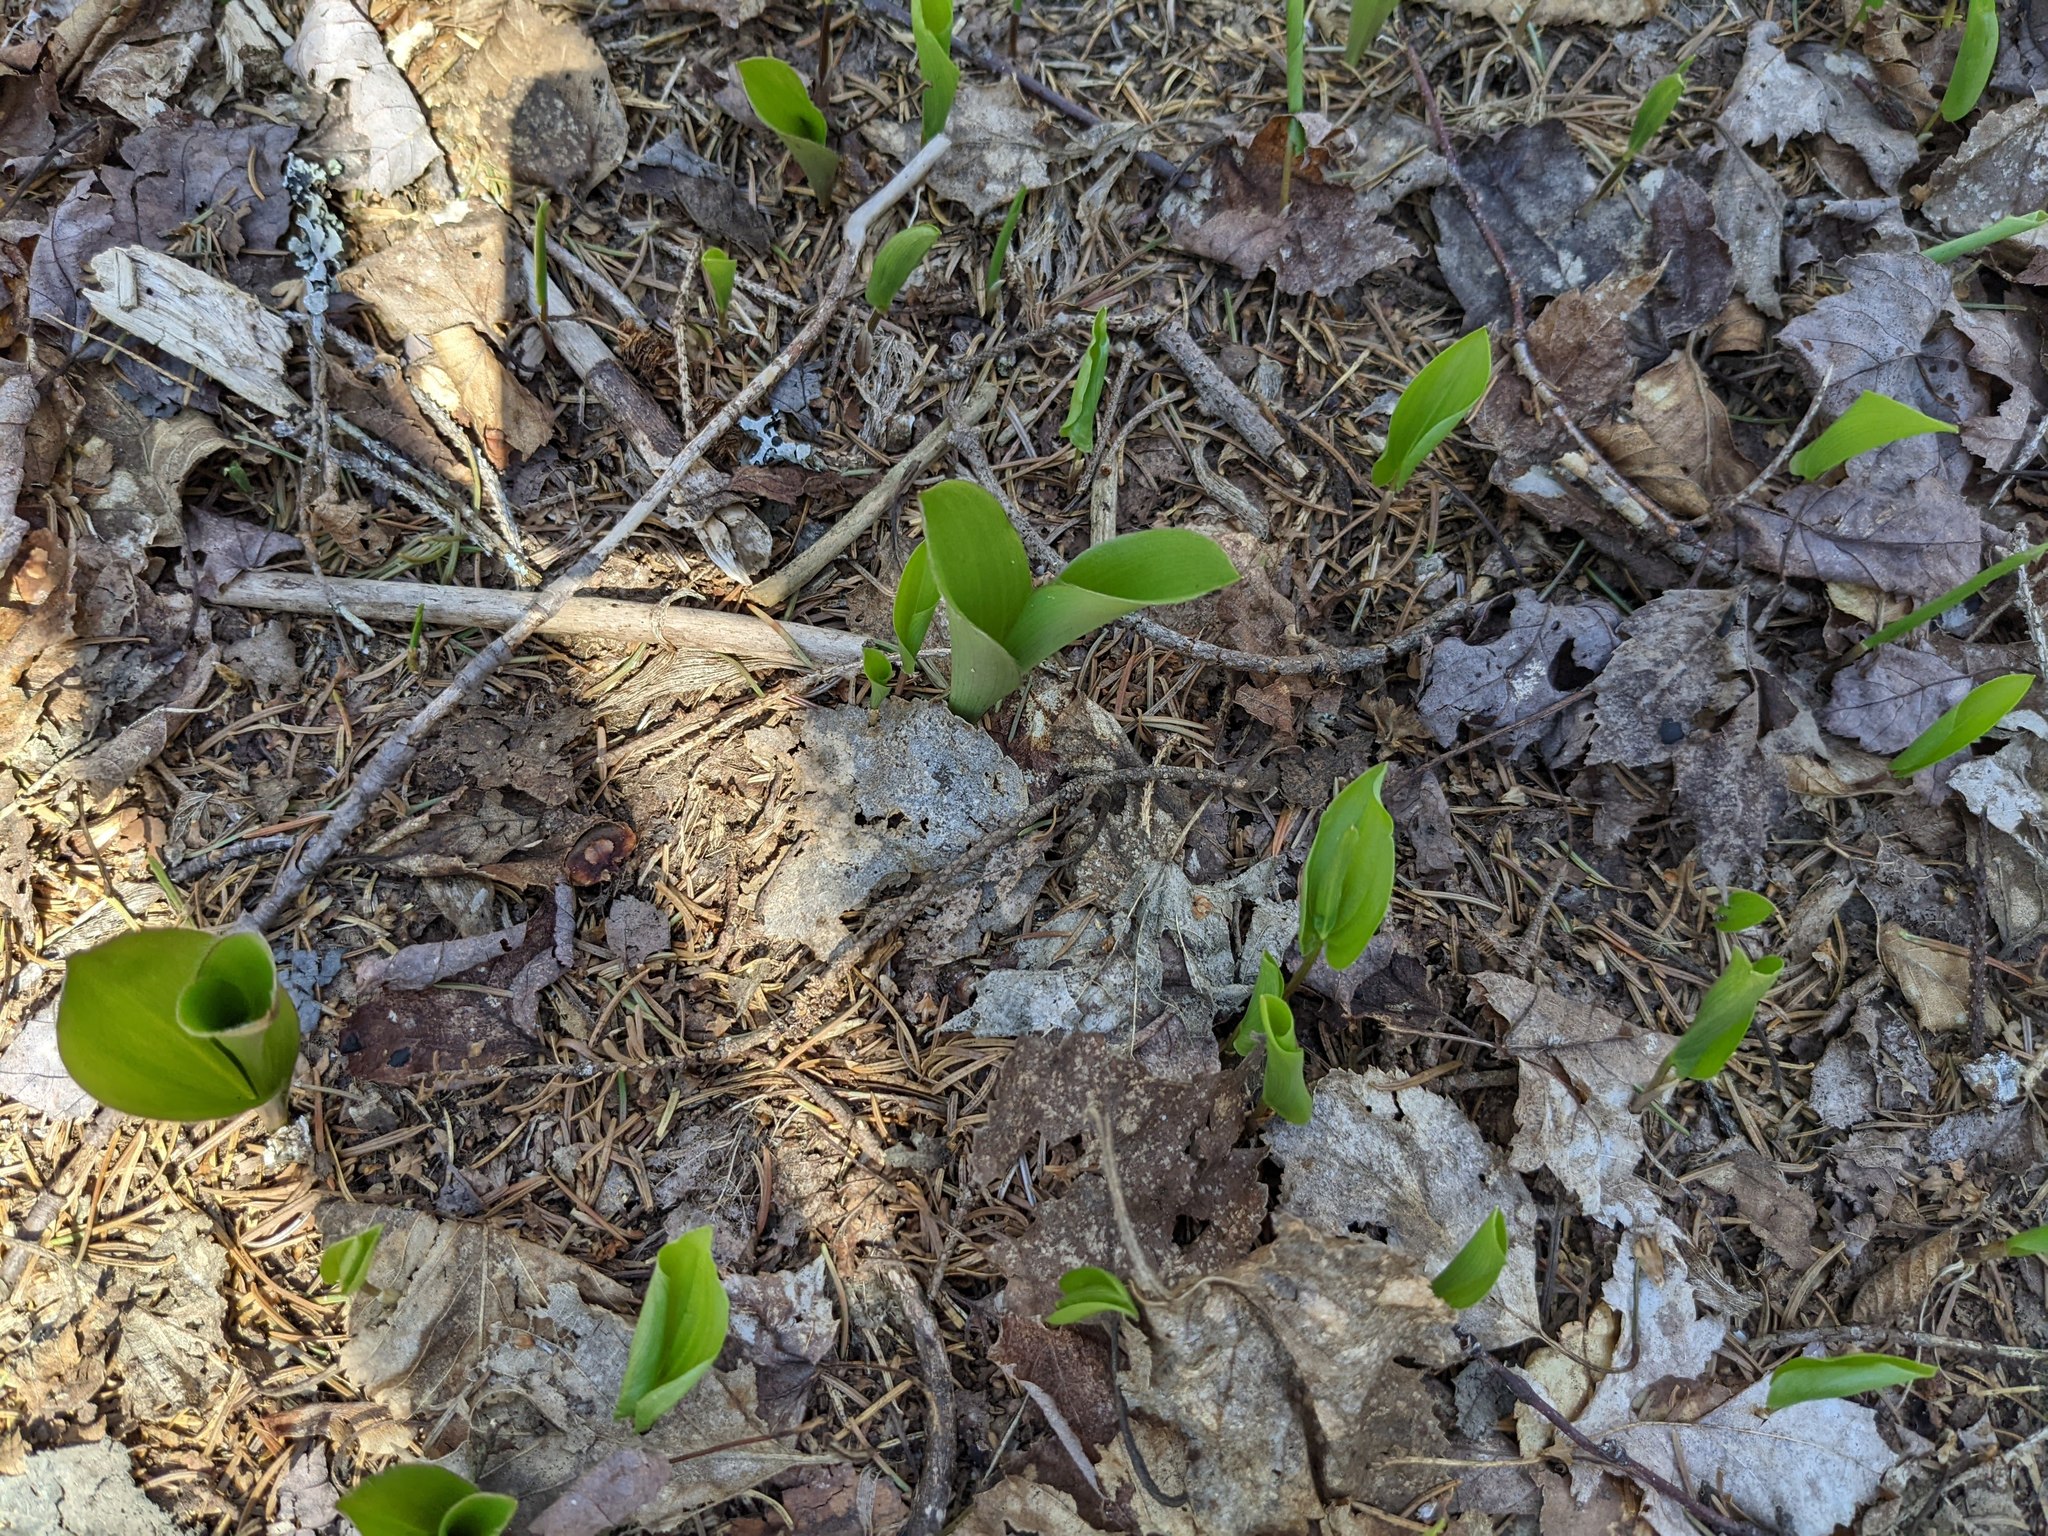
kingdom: Plantae
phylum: Tracheophyta
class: Liliopsida
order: Asparagales
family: Asparagaceae
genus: Maianthemum
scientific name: Maianthemum canadense
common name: False lily-of-the-valley
